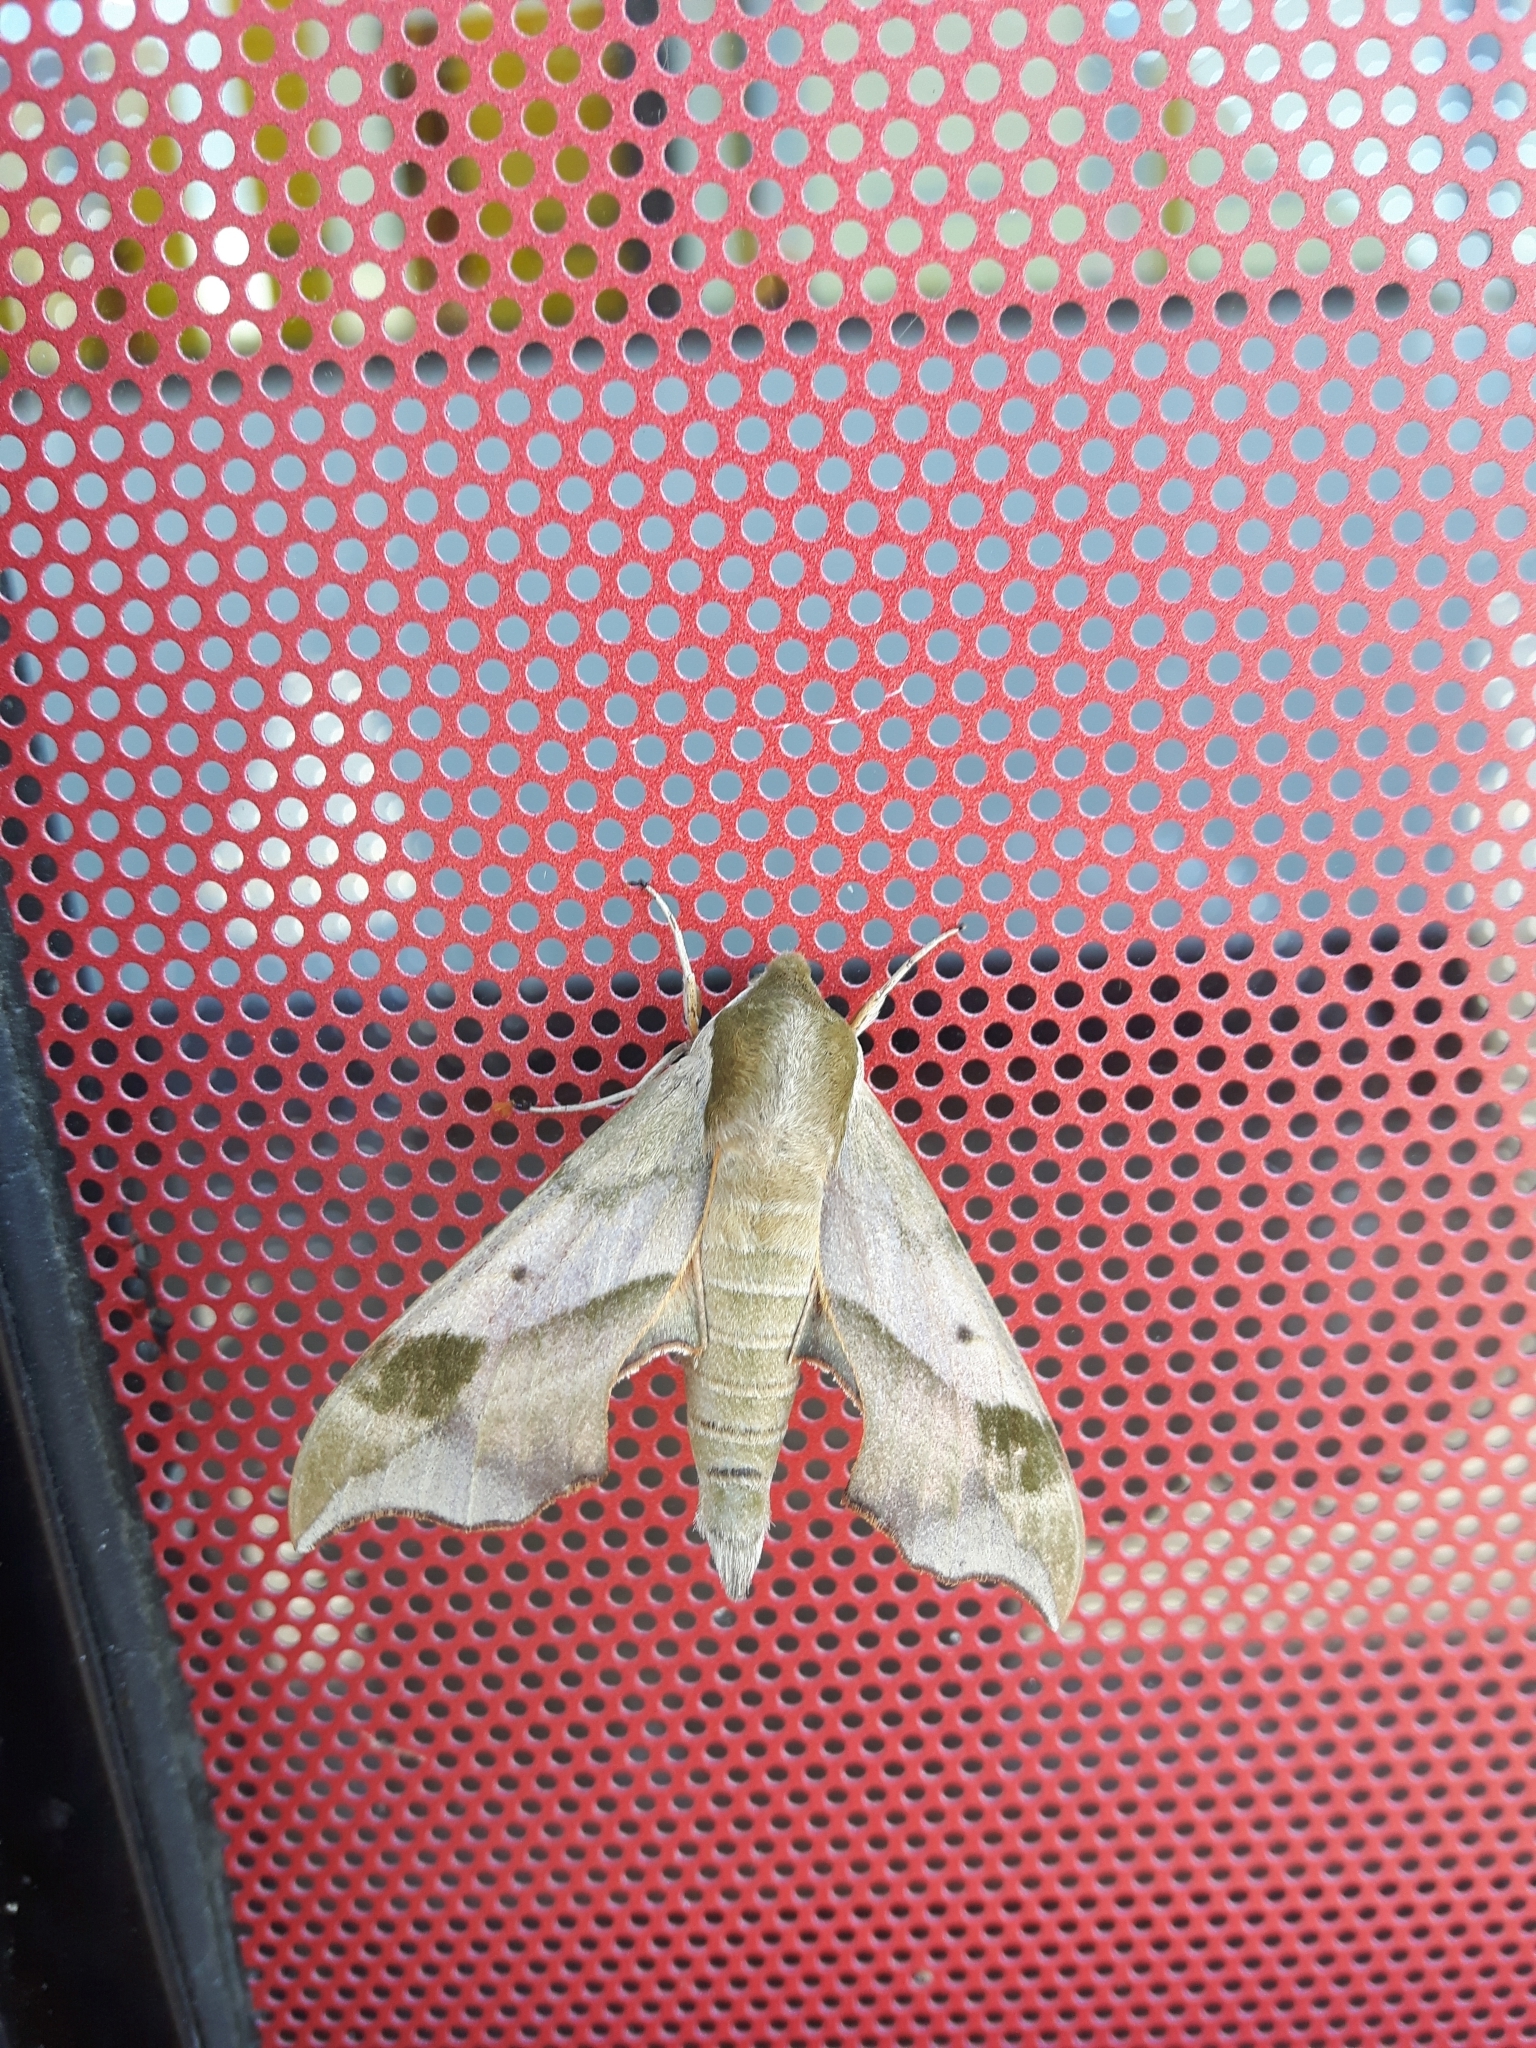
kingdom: Animalia
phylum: Arthropoda
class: Insecta
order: Lepidoptera
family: Sphingidae
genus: Darapsa
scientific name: Darapsa myron
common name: Hog sphinx
